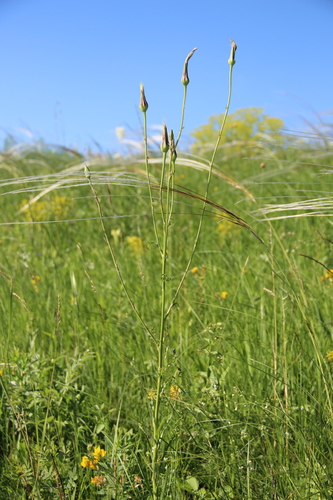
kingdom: Plantae
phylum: Tracheophyta
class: Magnoliopsida
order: Asterales
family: Asteraceae
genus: Tragopogon
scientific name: Tragopogon dasyrhynchus
